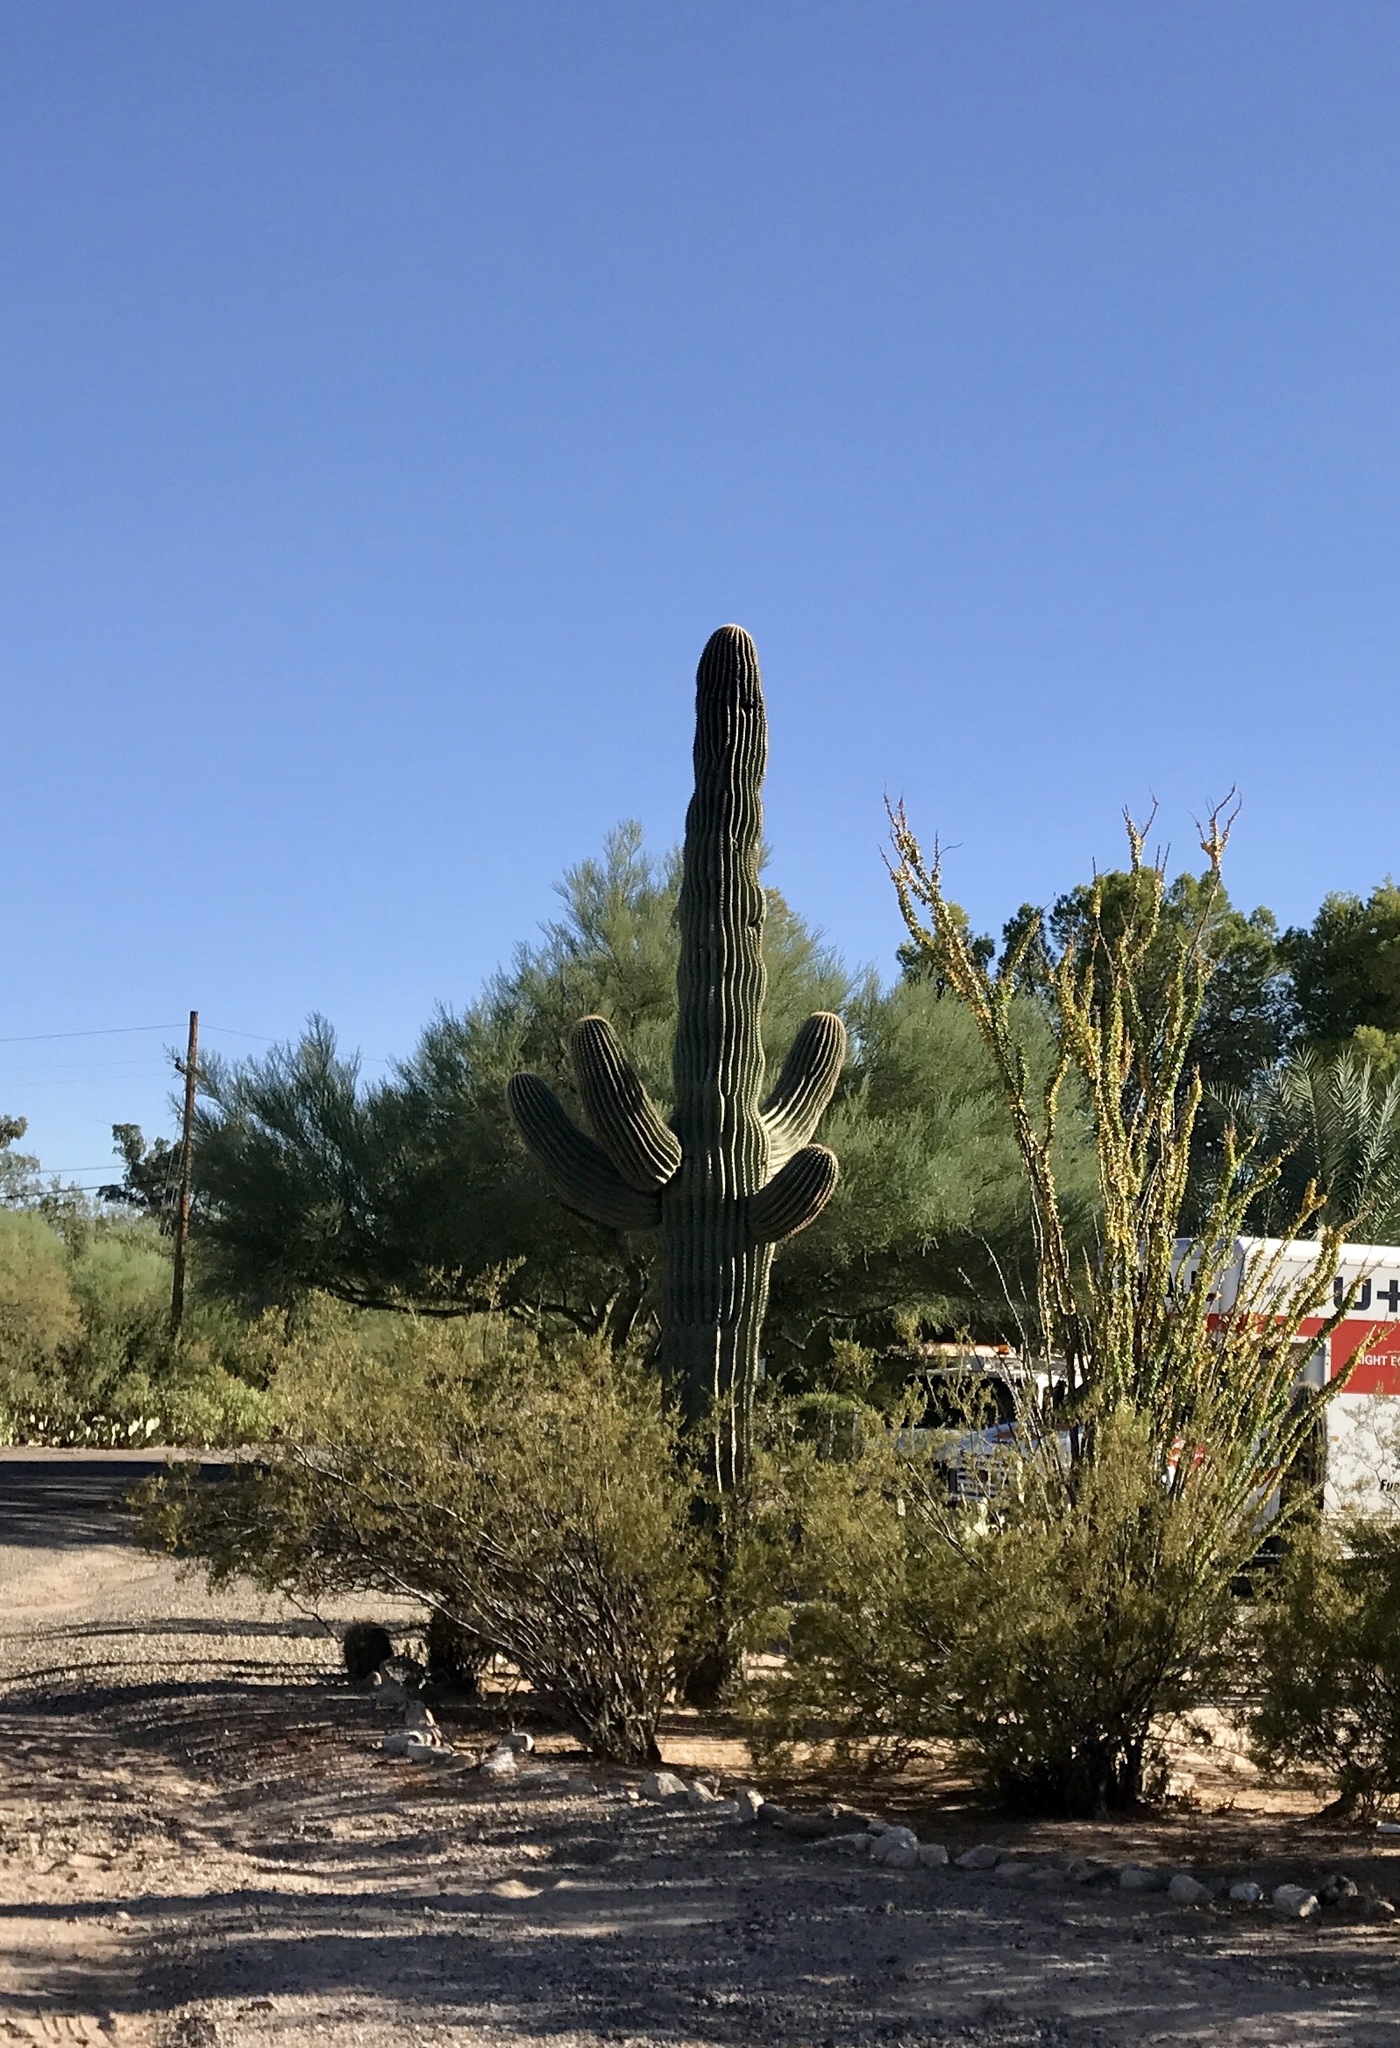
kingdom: Plantae
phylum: Tracheophyta
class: Magnoliopsida
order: Caryophyllales
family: Cactaceae
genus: Carnegiea
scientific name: Carnegiea gigantea
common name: Saguaro
